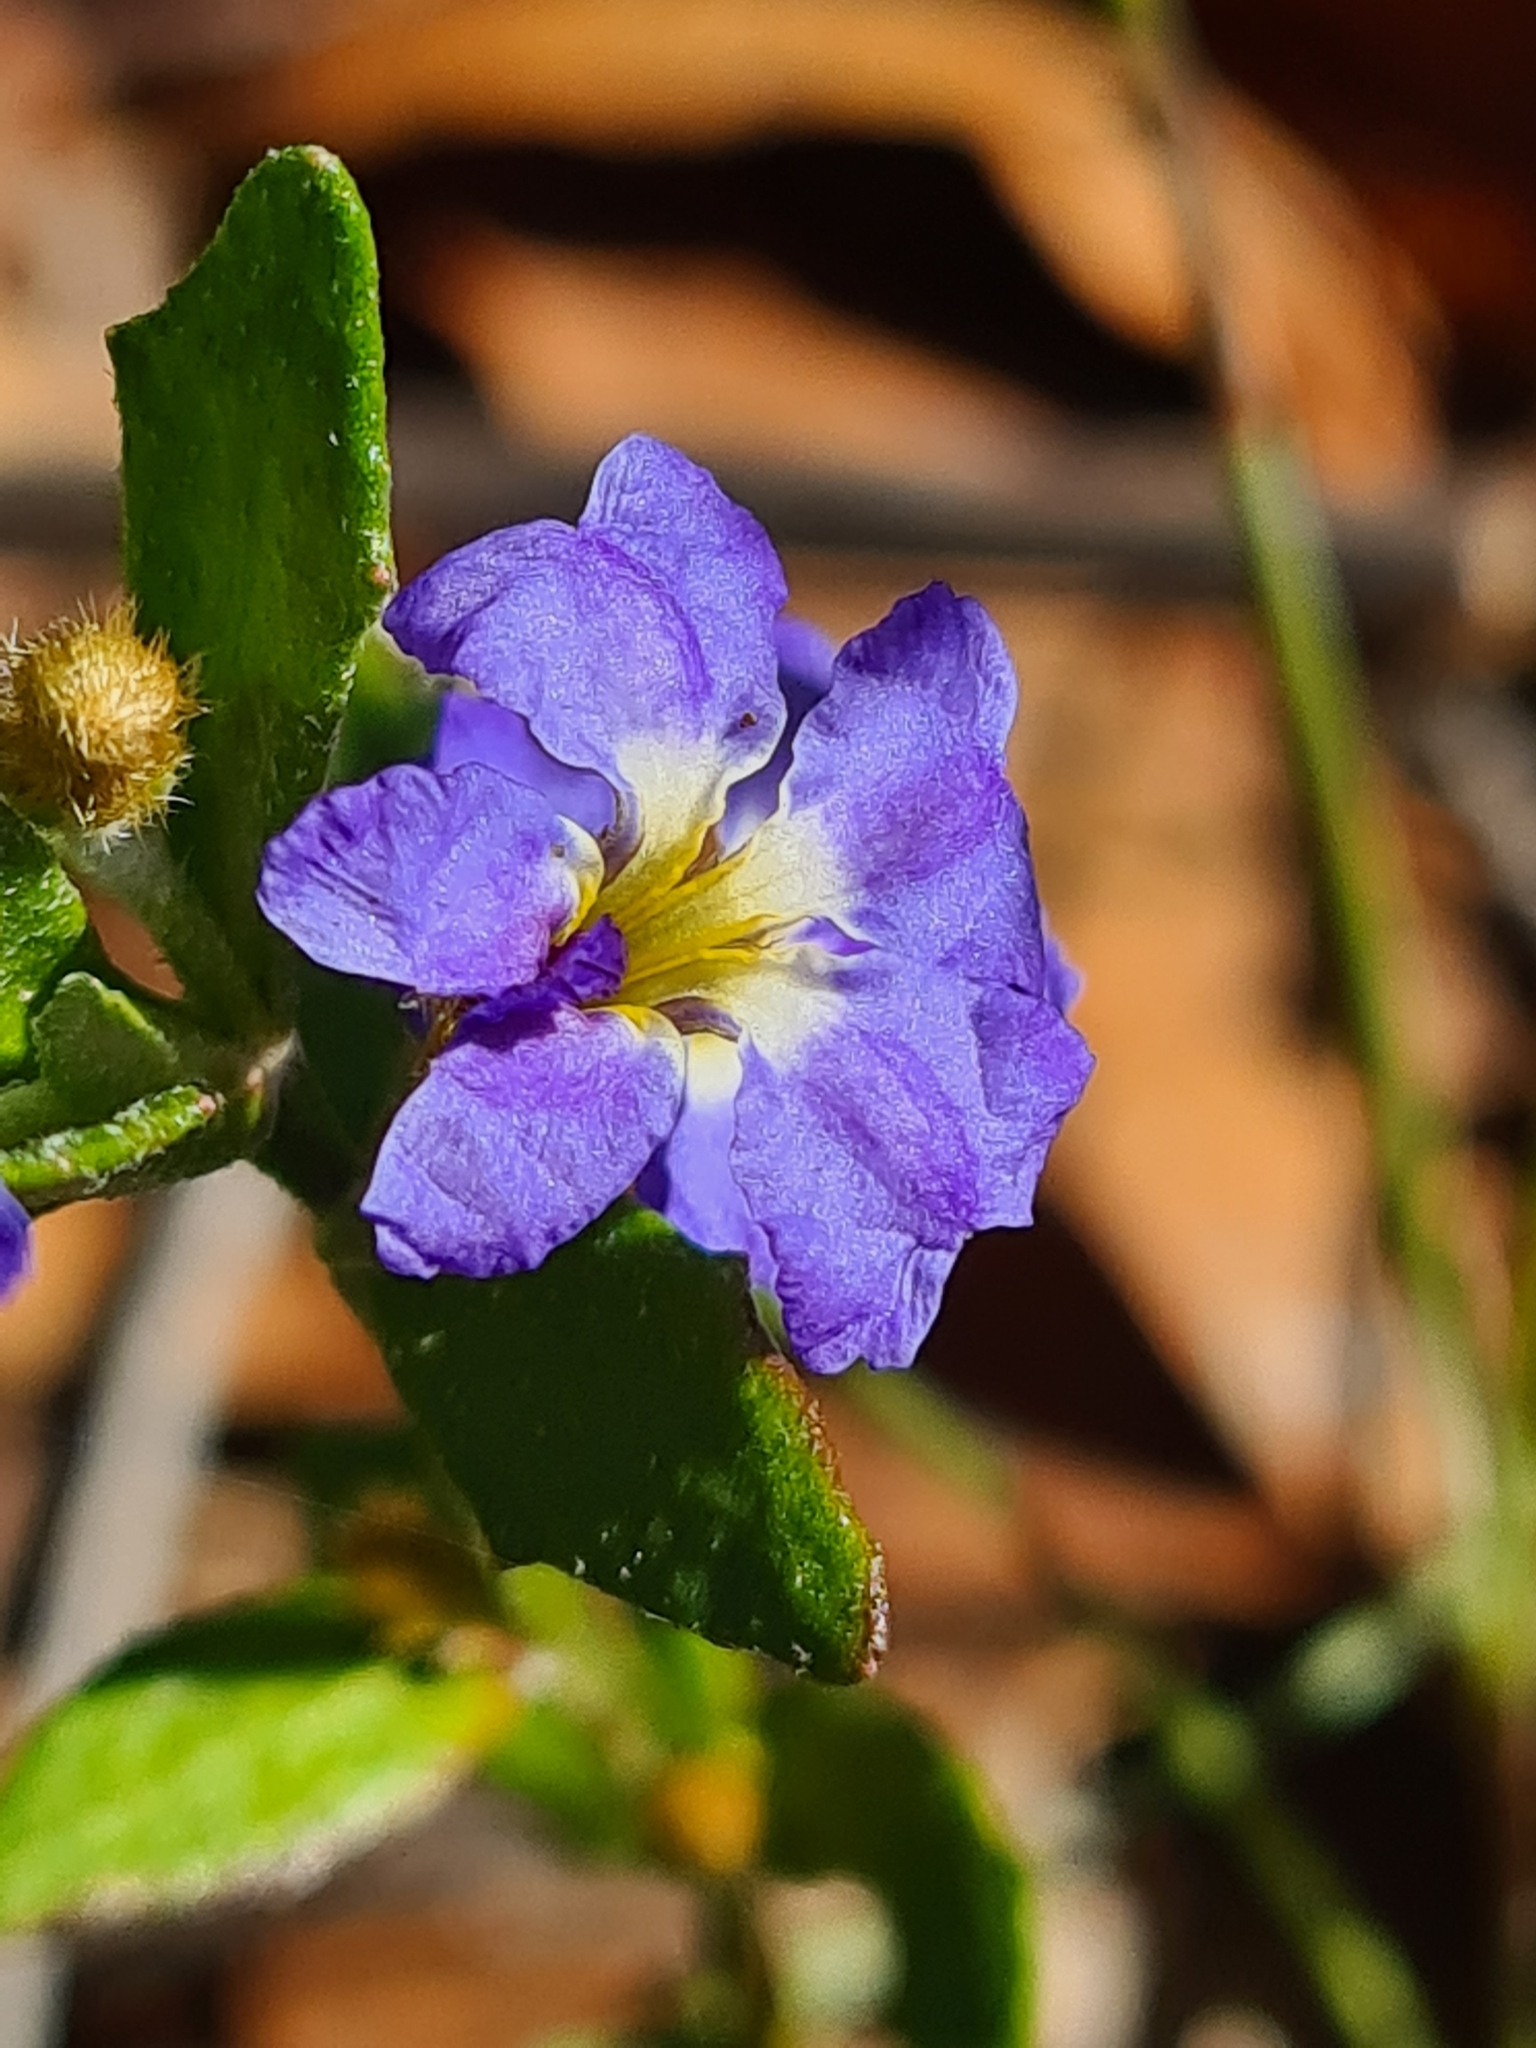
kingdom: Plantae
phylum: Tracheophyta
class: Magnoliopsida
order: Asterales
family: Goodeniaceae
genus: Dampiera
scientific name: Dampiera stricta
